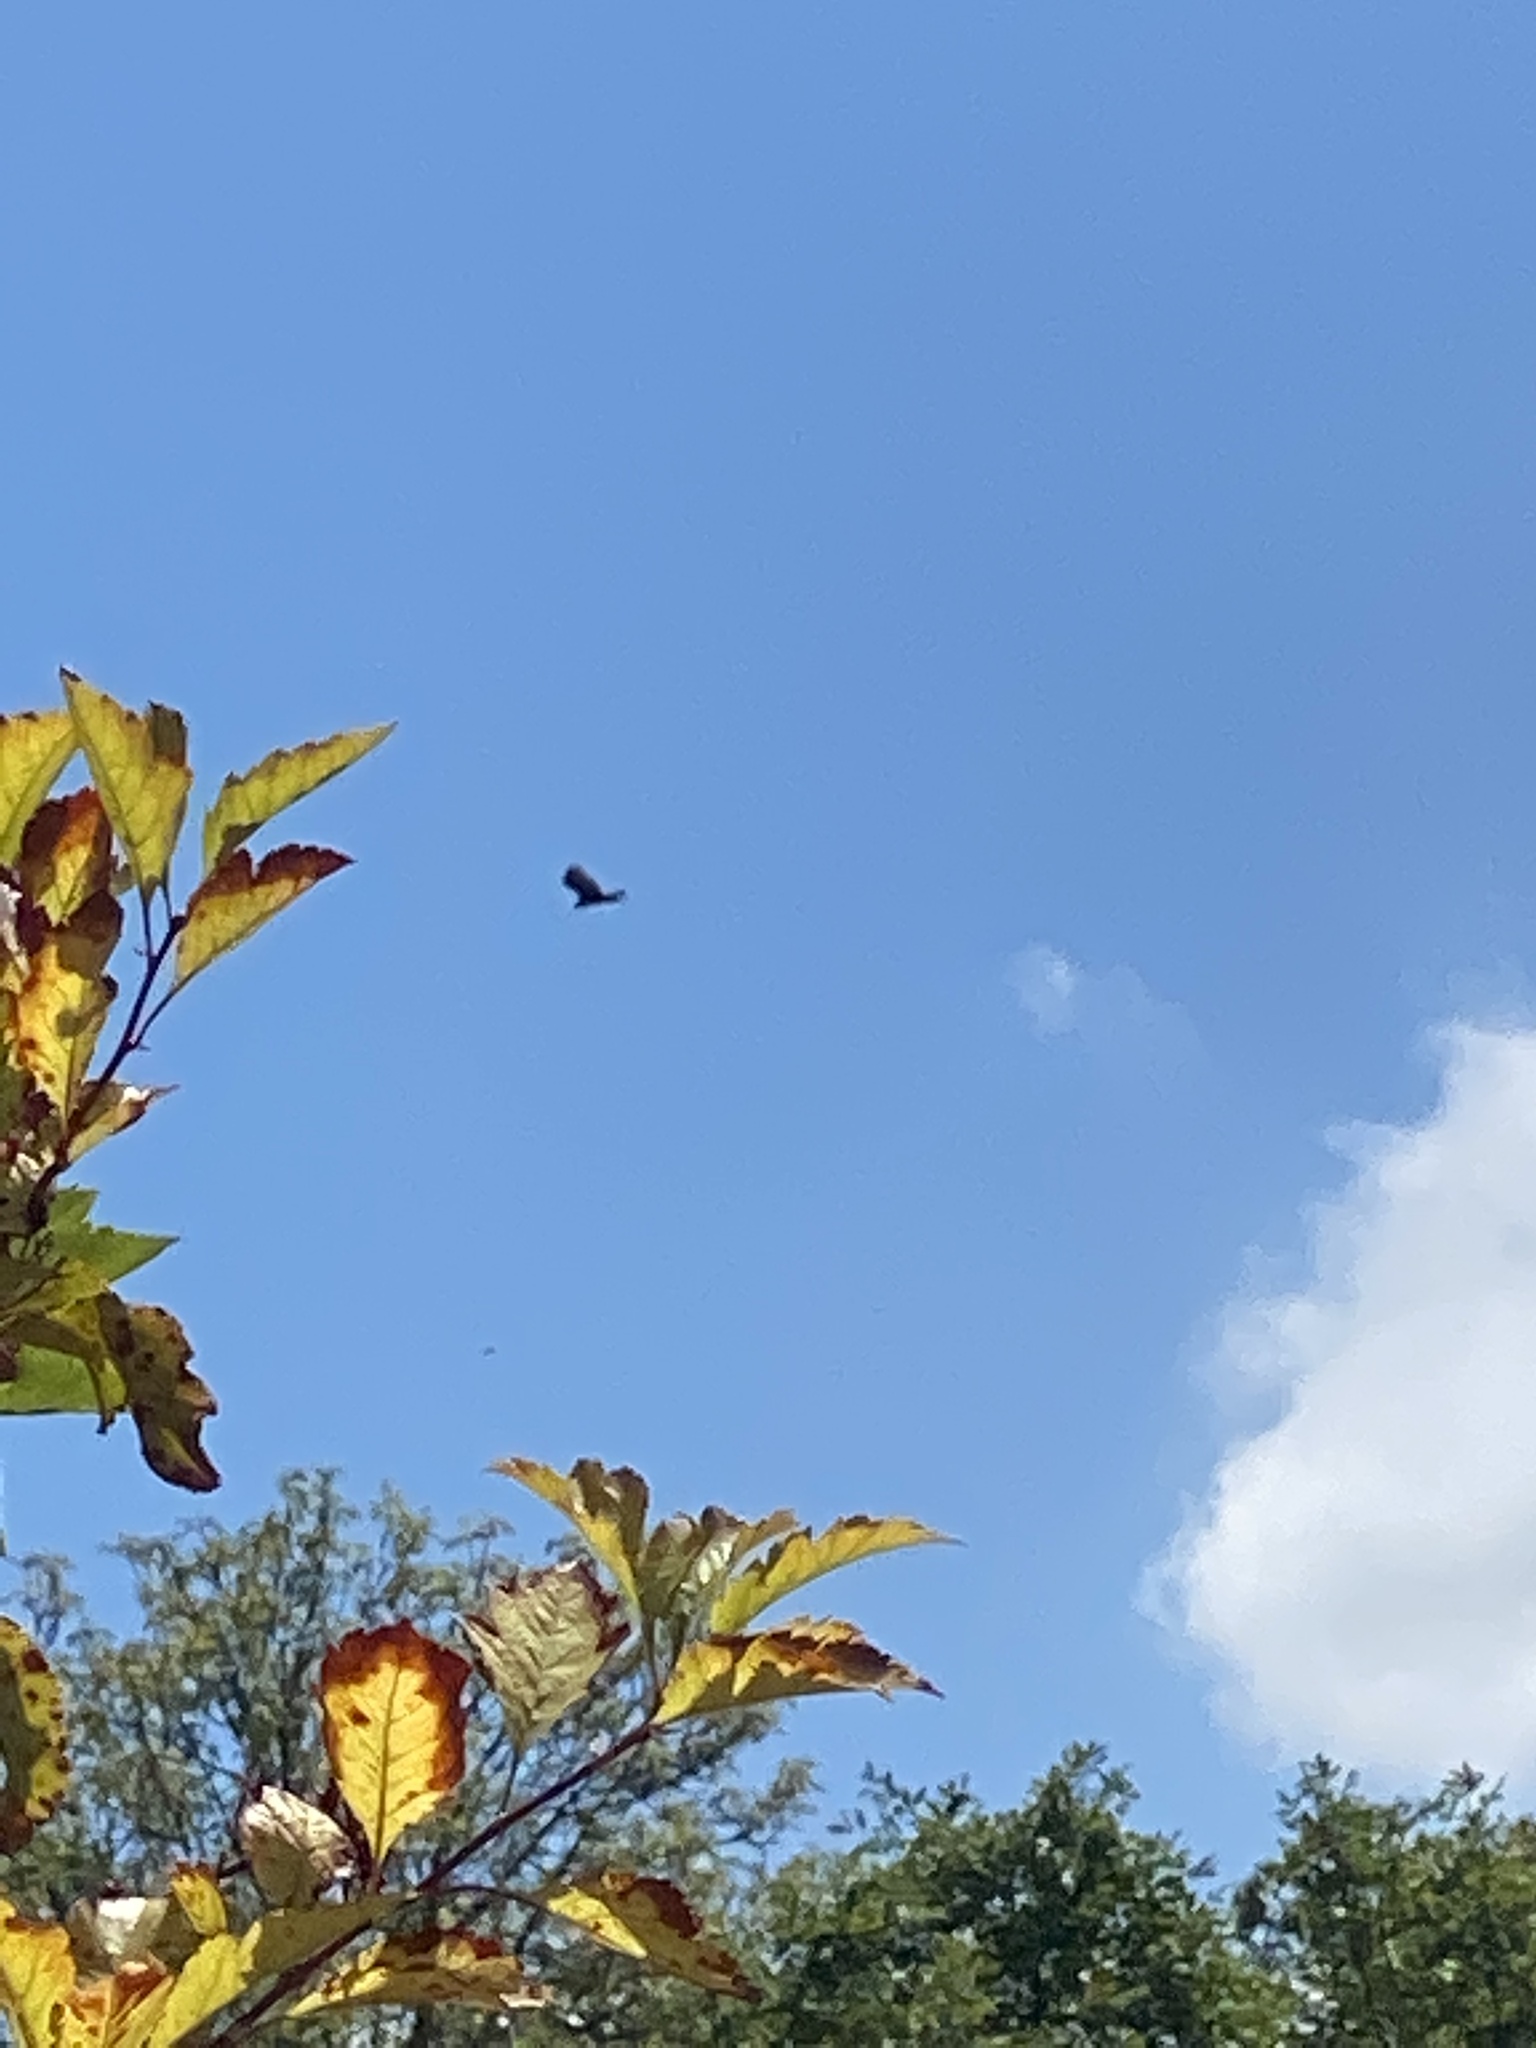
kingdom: Animalia
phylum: Chordata
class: Aves
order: Accipitriformes
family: Cathartidae
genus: Cathartes
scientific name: Cathartes aura
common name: Turkey vulture
